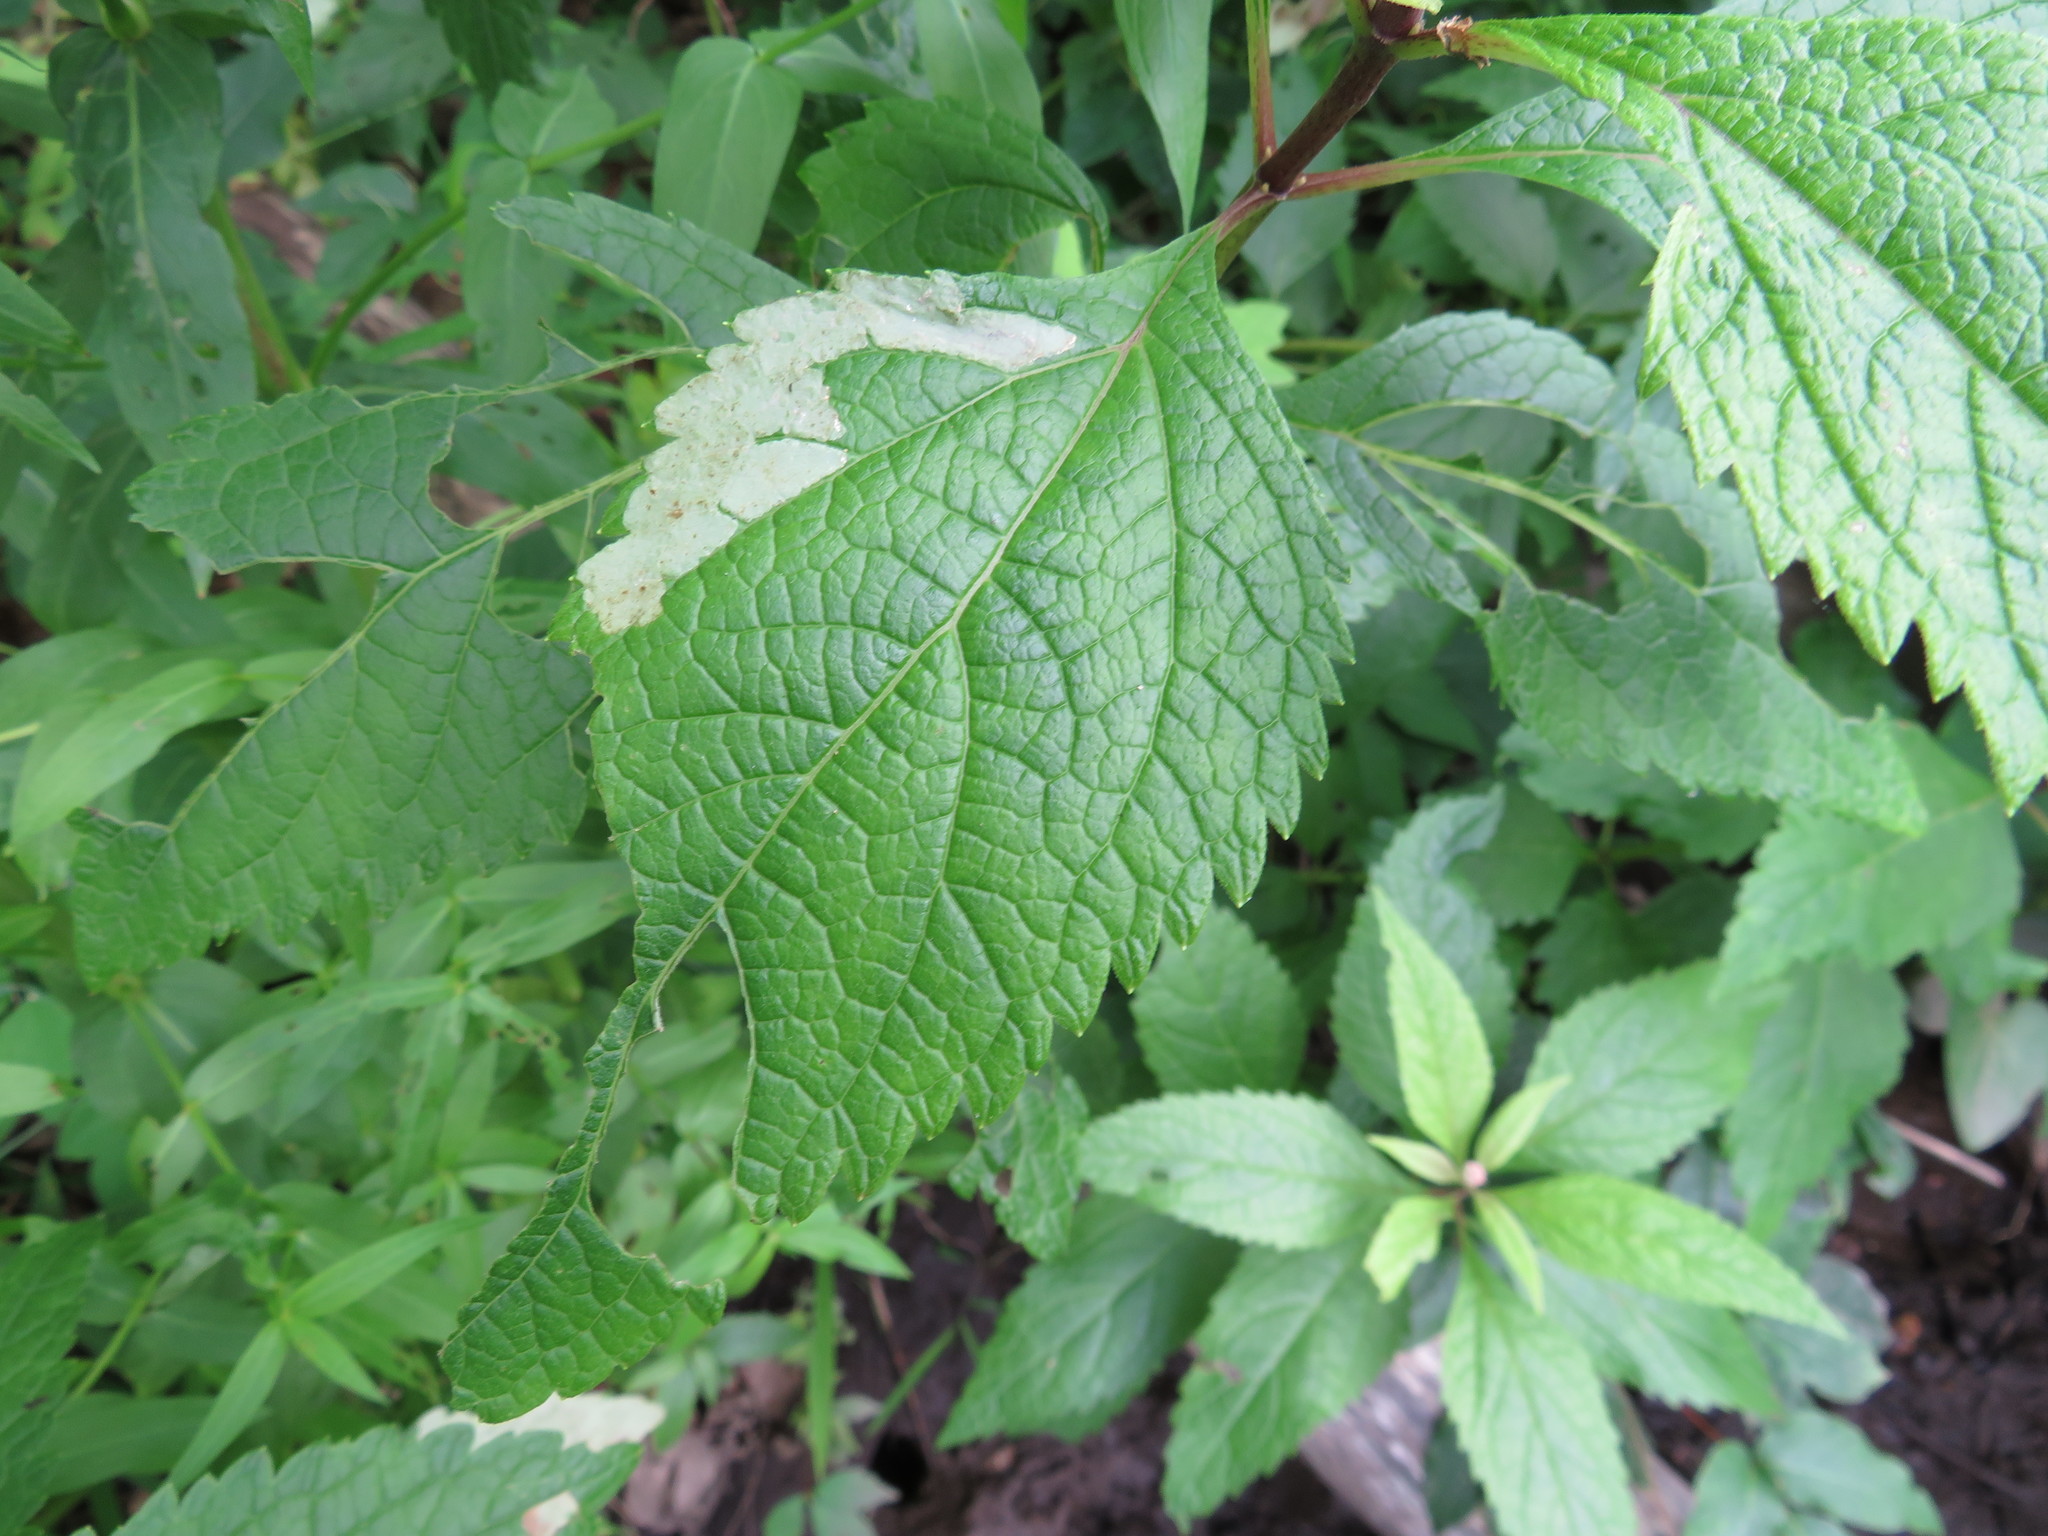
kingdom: Animalia
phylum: Arthropoda
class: Insecta
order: Diptera
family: Agromyzidae
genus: Calycomyza
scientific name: Calycomyza flavinotum
